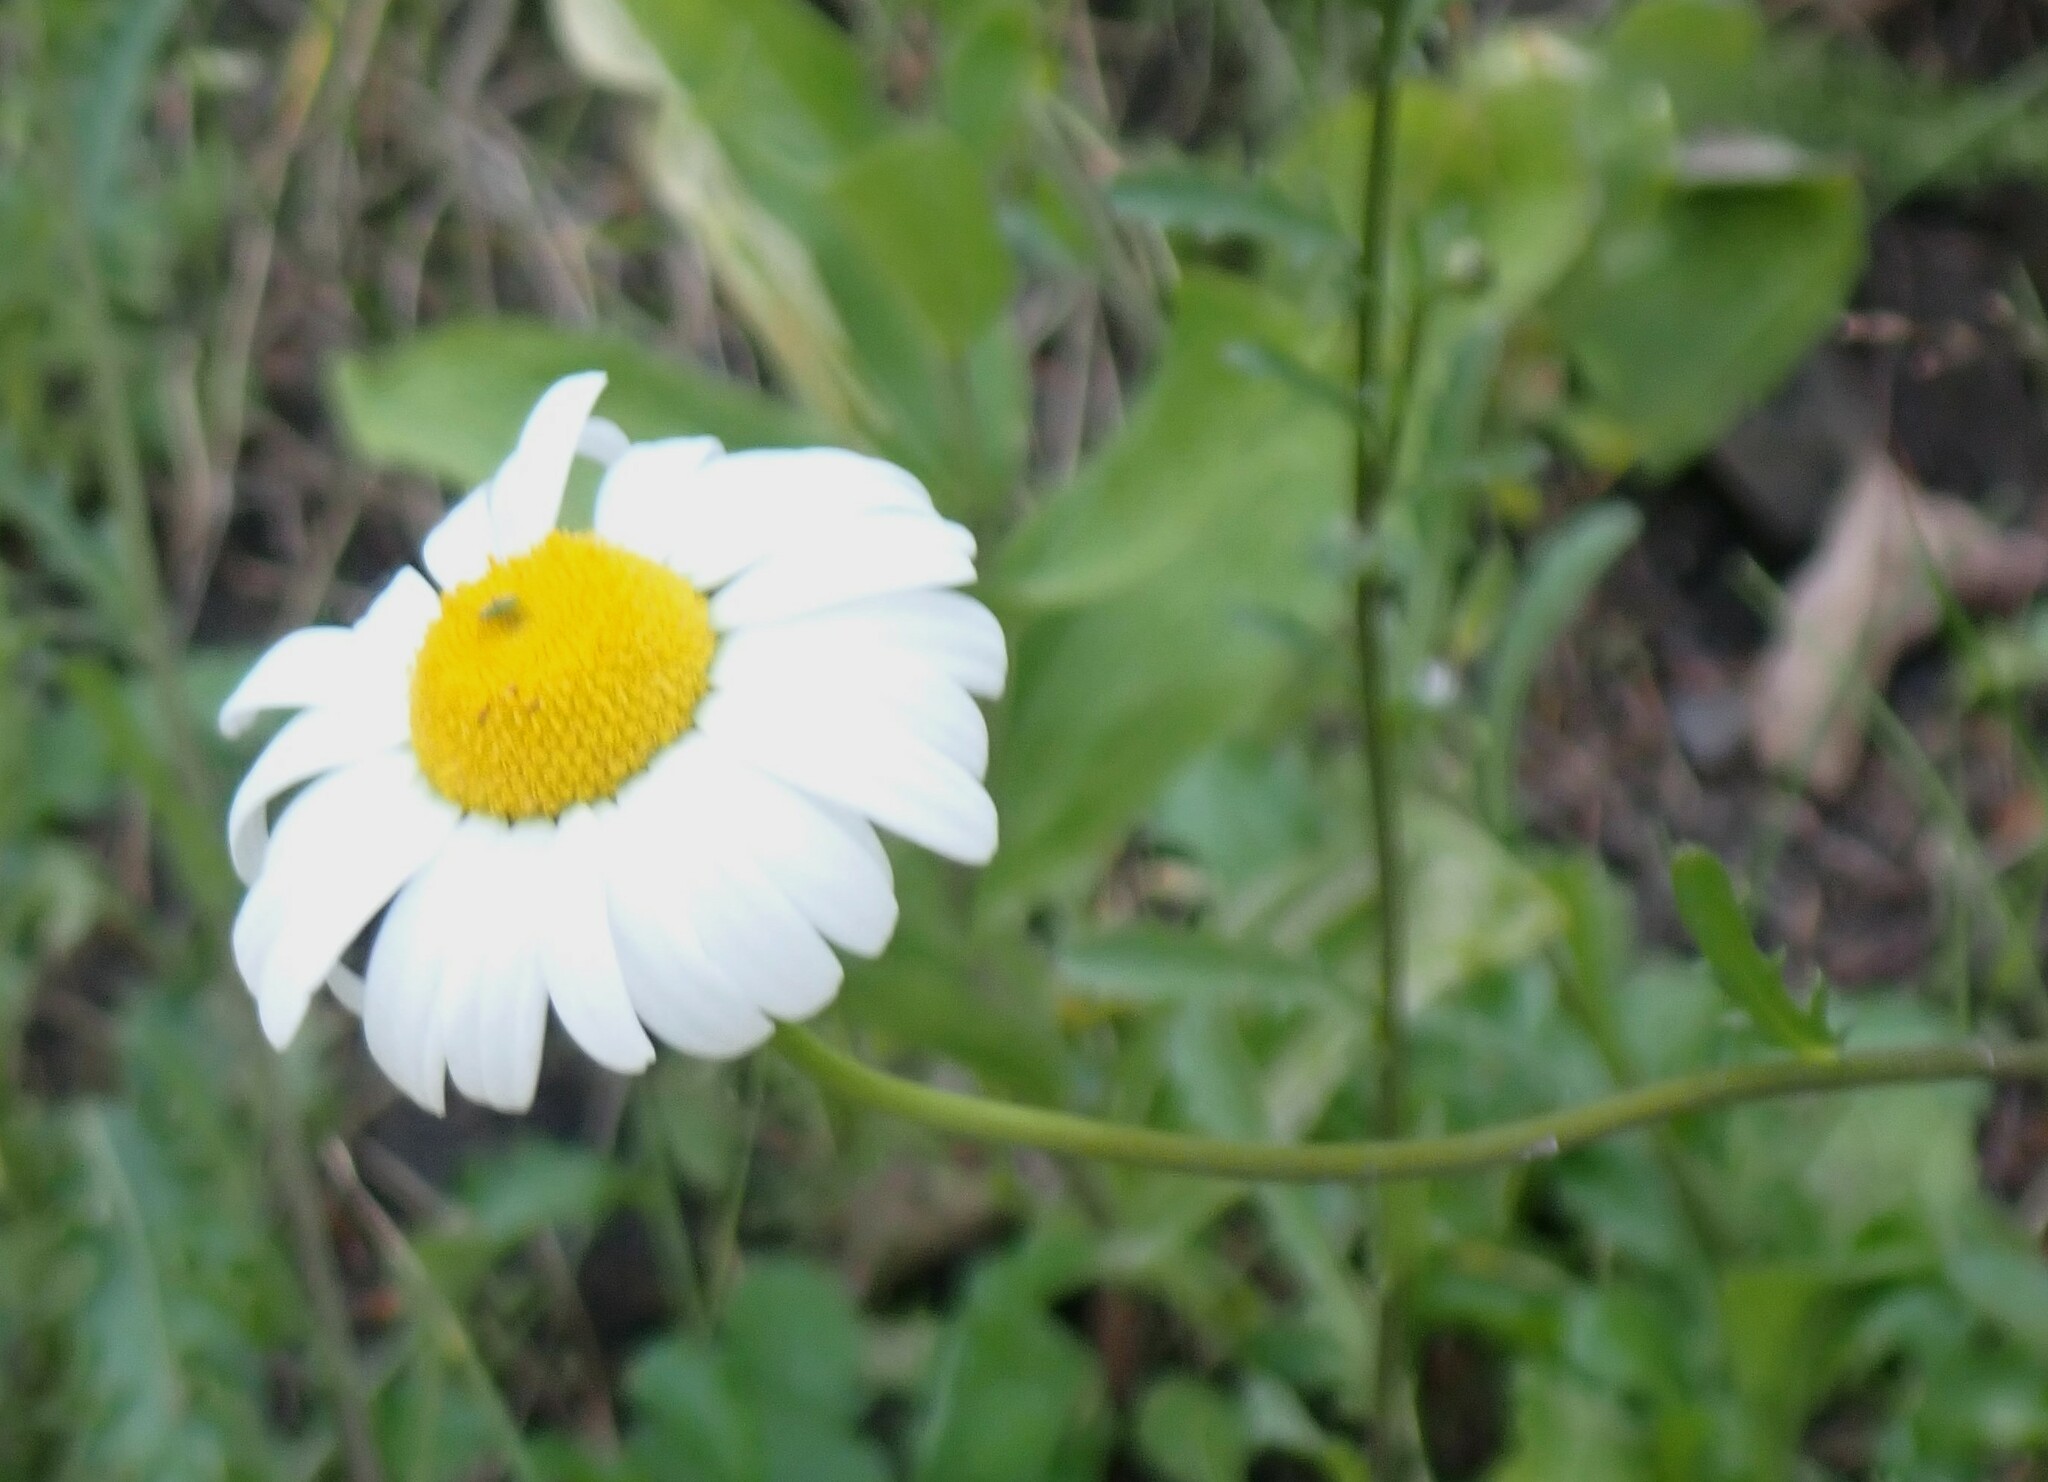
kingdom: Plantae
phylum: Tracheophyta
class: Magnoliopsida
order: Asterales
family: Asteraceae
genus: Leucanthemum
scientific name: Leucanthemum vulgare
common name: Oxeye daisy
